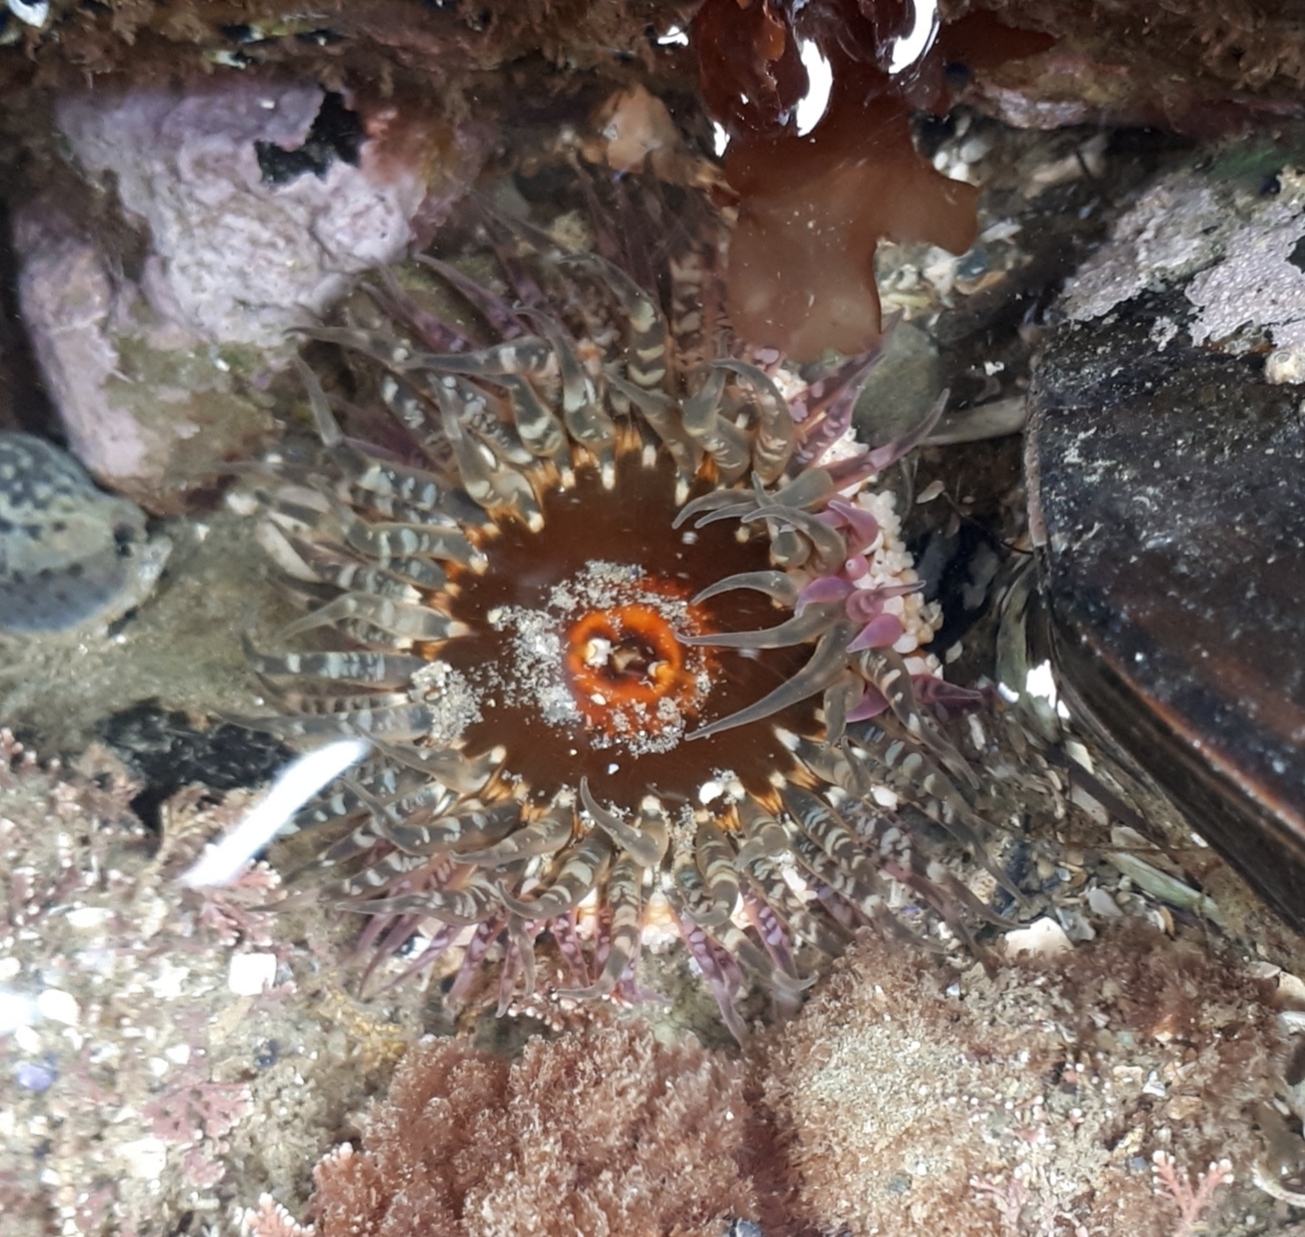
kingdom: Animalia
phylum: Cnidaria
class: Anthozoa
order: Actiniaria
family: Actiniidae
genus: Oulactis
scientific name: Oulactis muscosa
